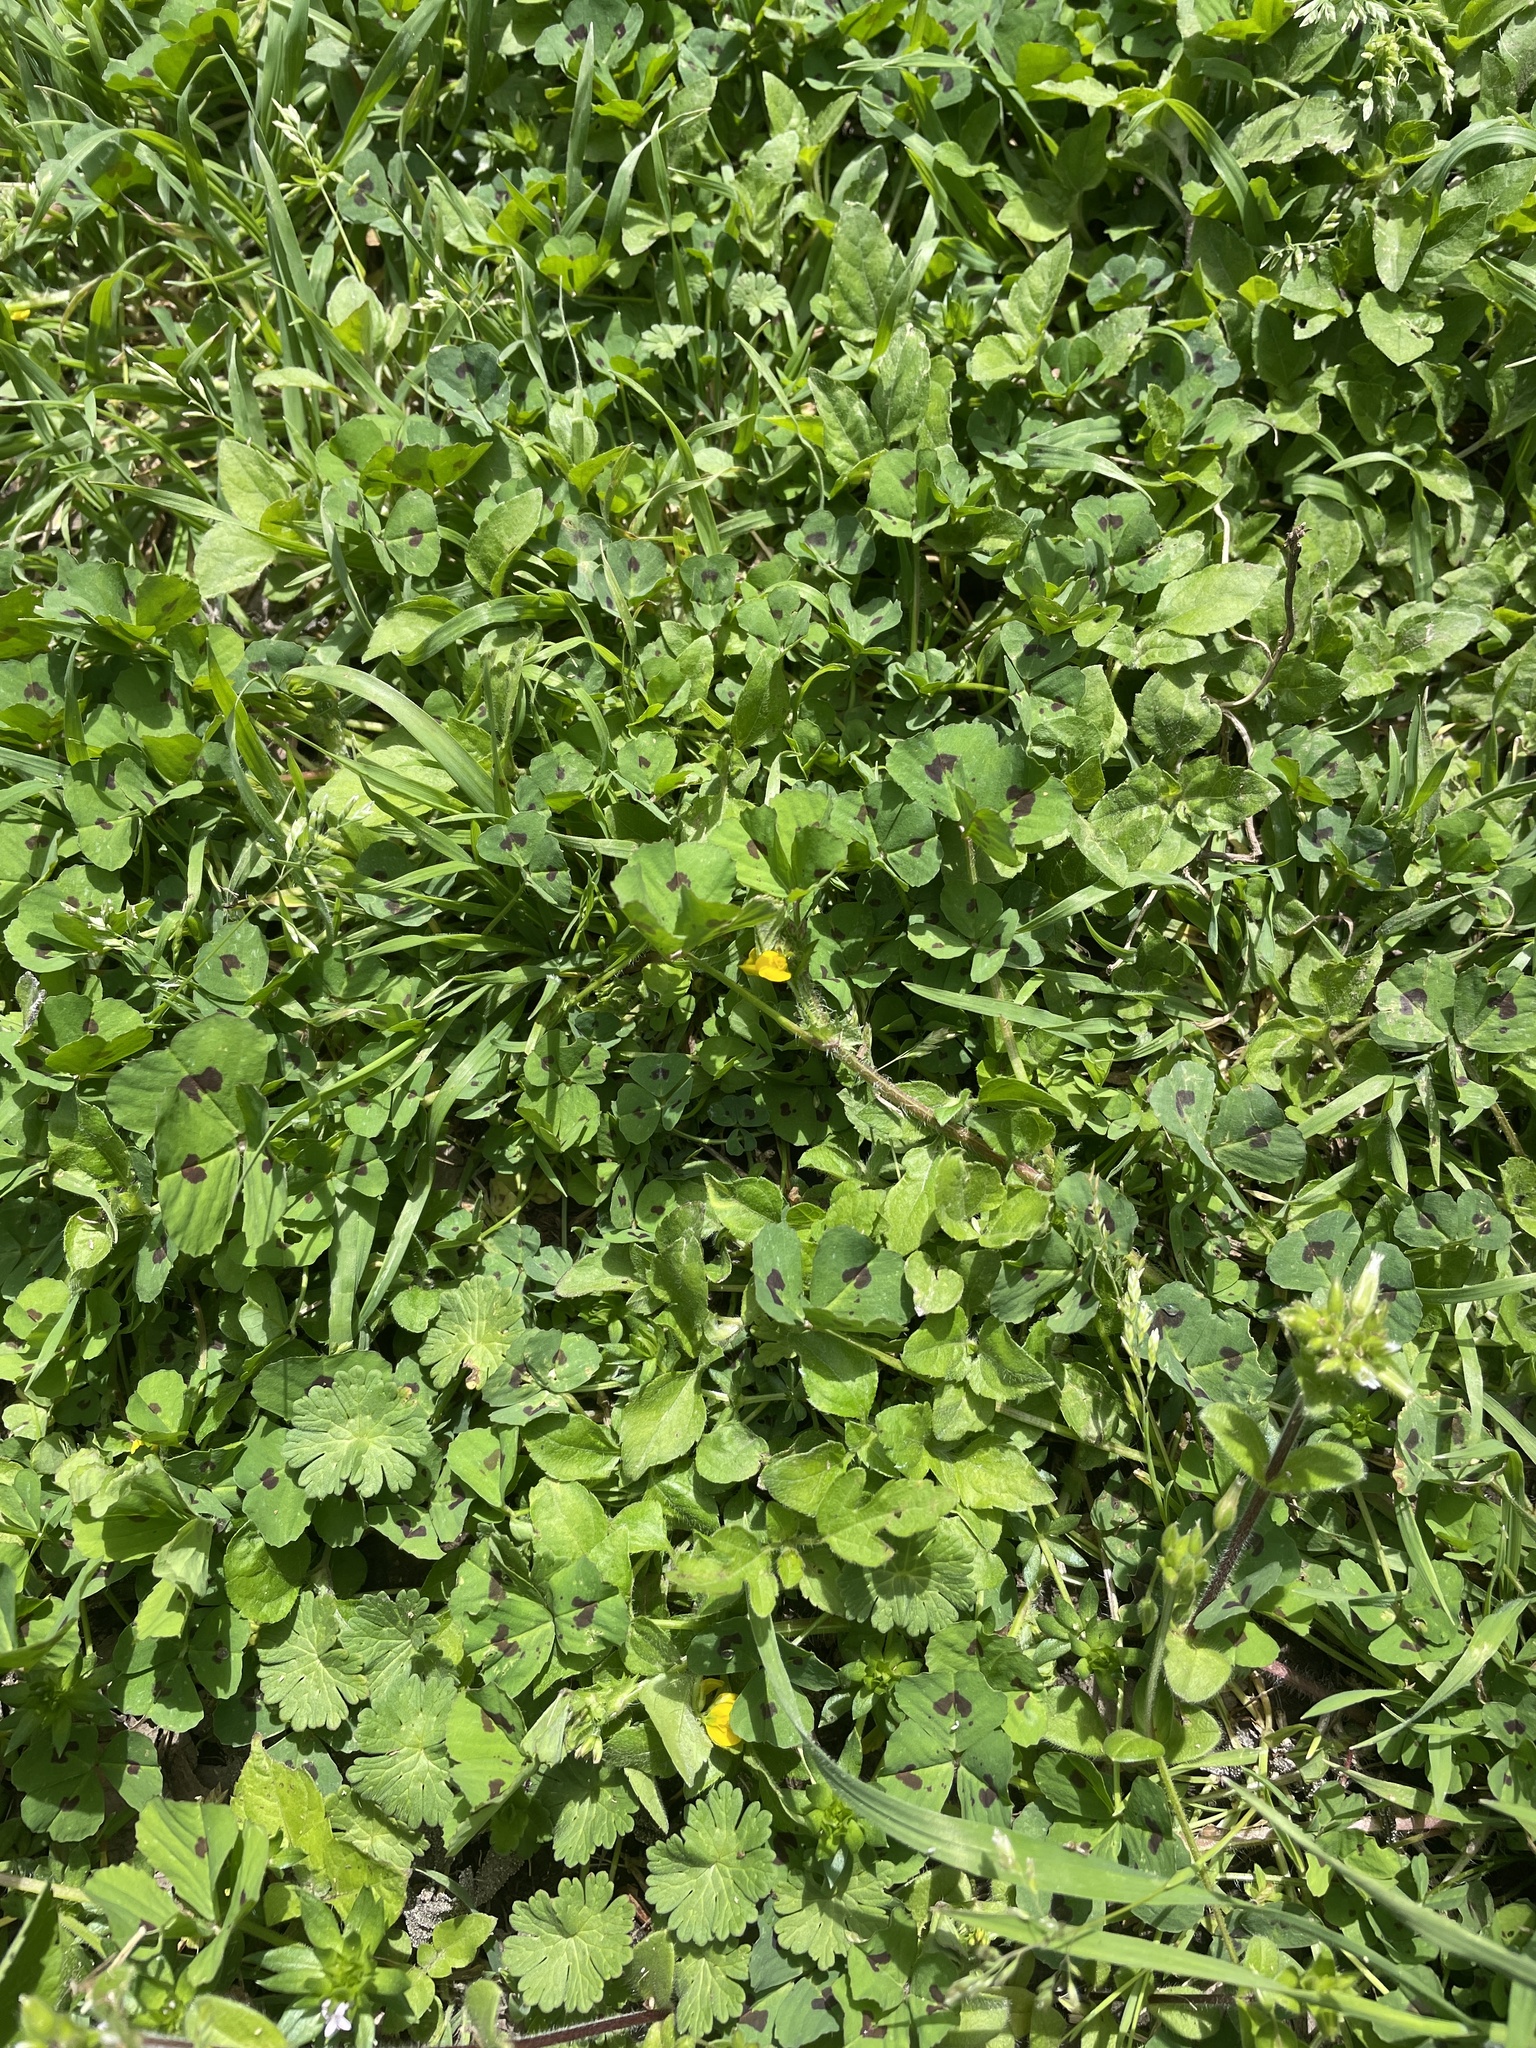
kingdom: Plantae
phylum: Tracheophyta
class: Magnoliopsida
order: Fabales
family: Fabaceae
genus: Medicago
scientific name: Medicago arabica
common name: Spotted medick
